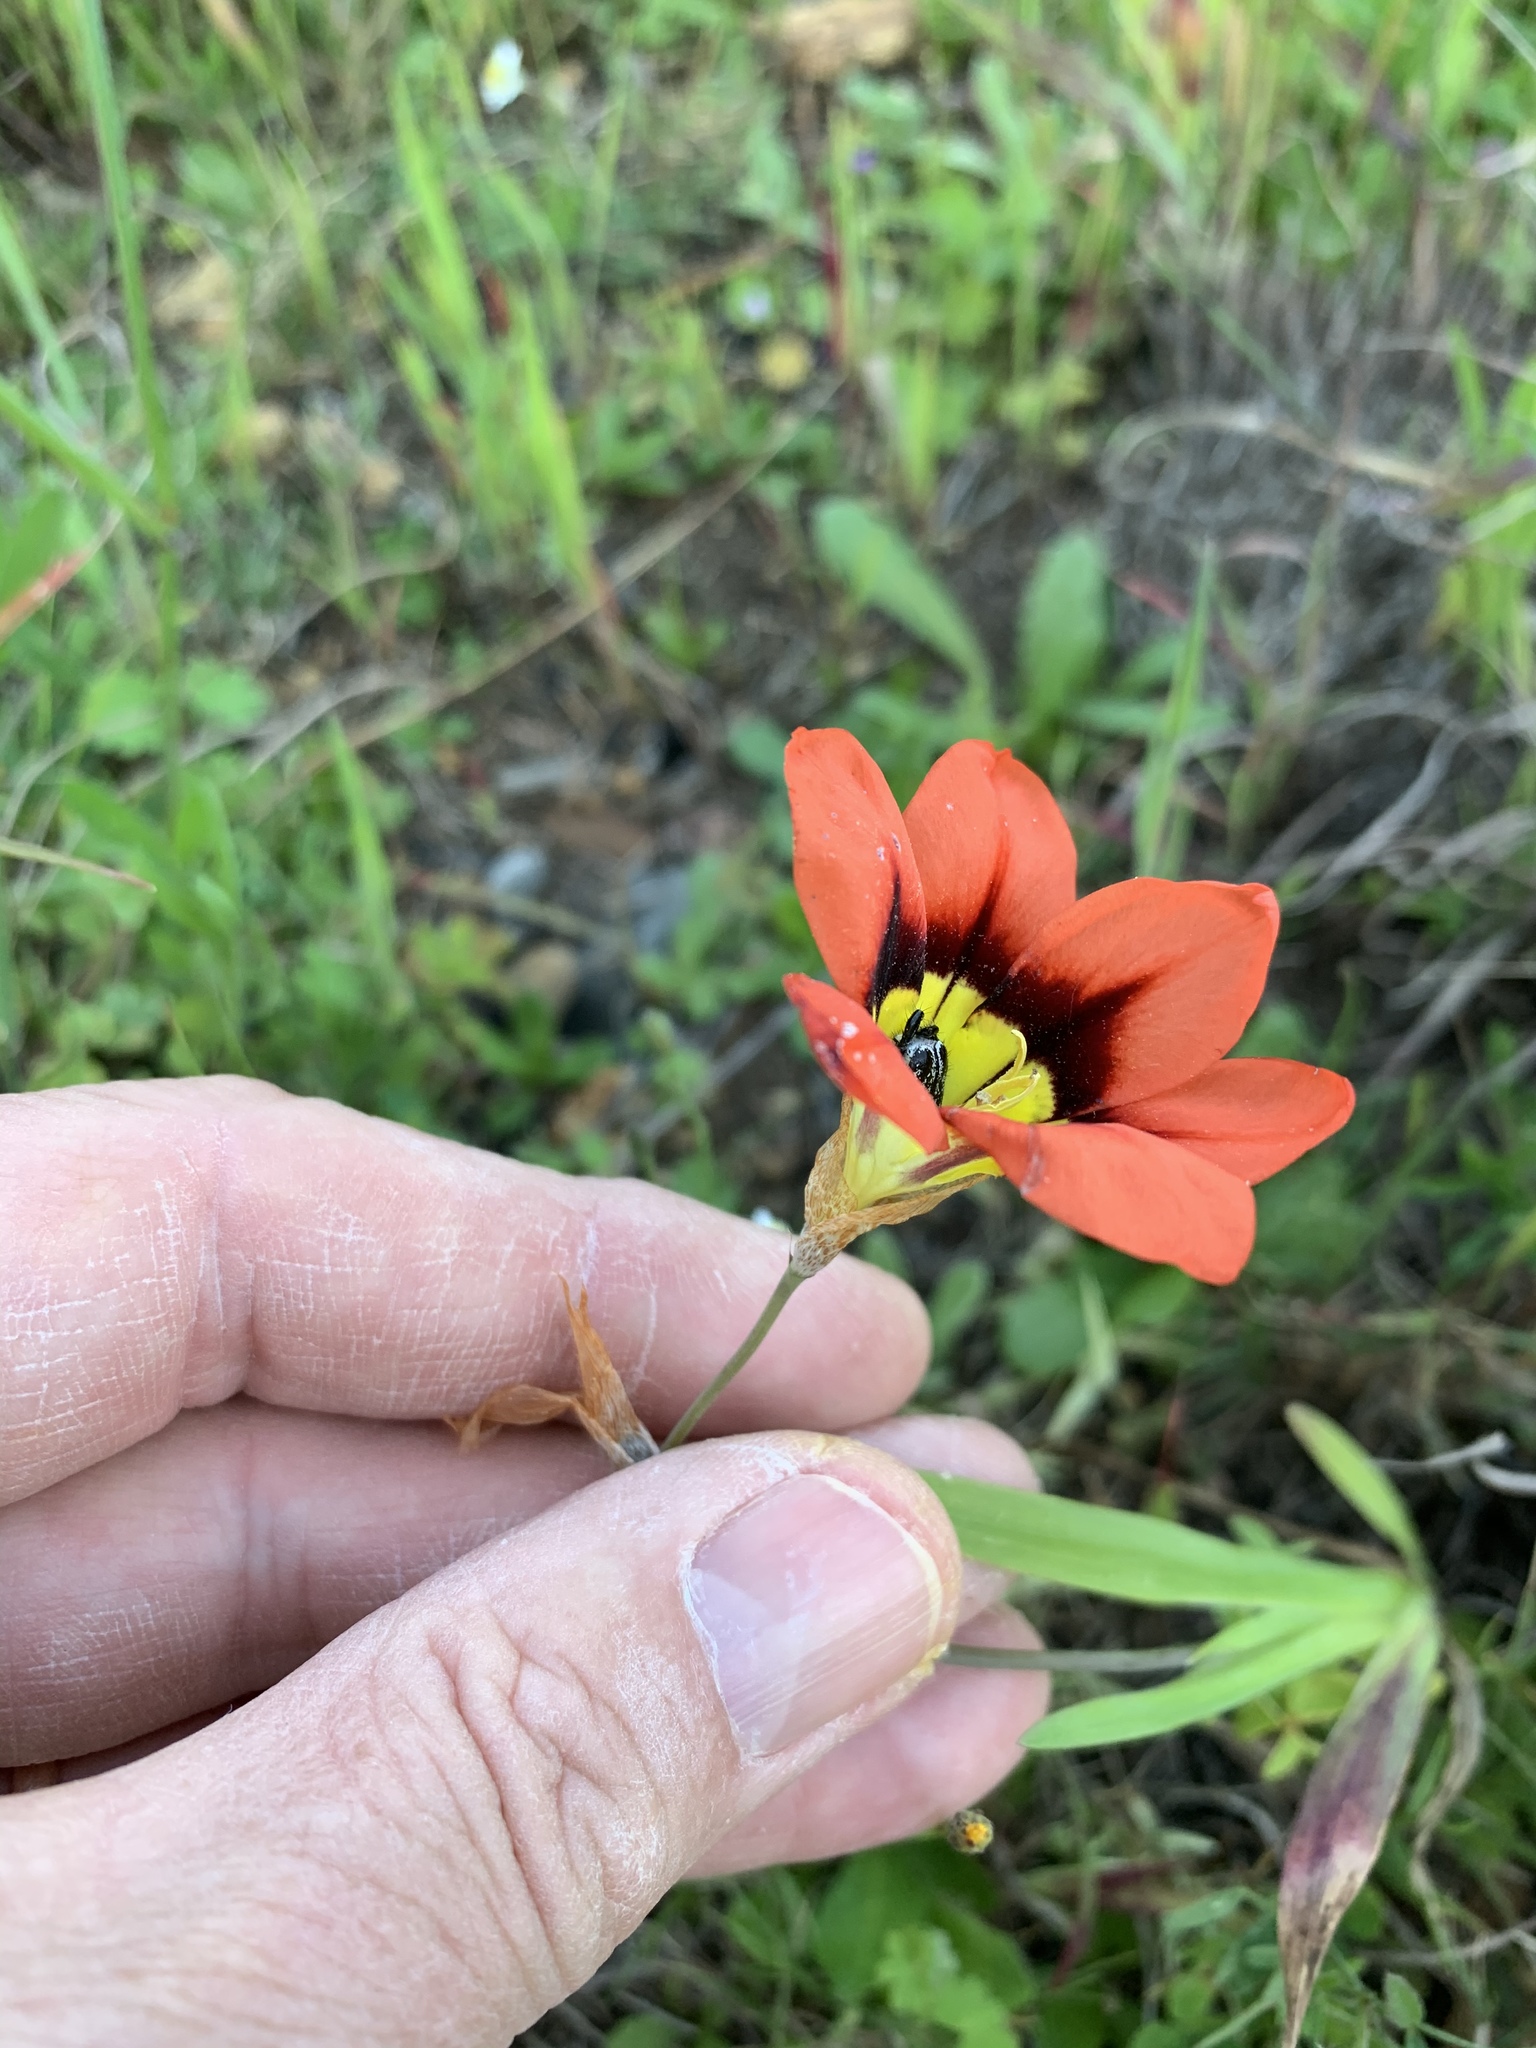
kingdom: Plantae
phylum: Tracheophyta
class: Liliopsida
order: Asparagales
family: Iridaceae
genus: Sparaxis
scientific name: Sparaxis tricolor
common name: Wandflower
